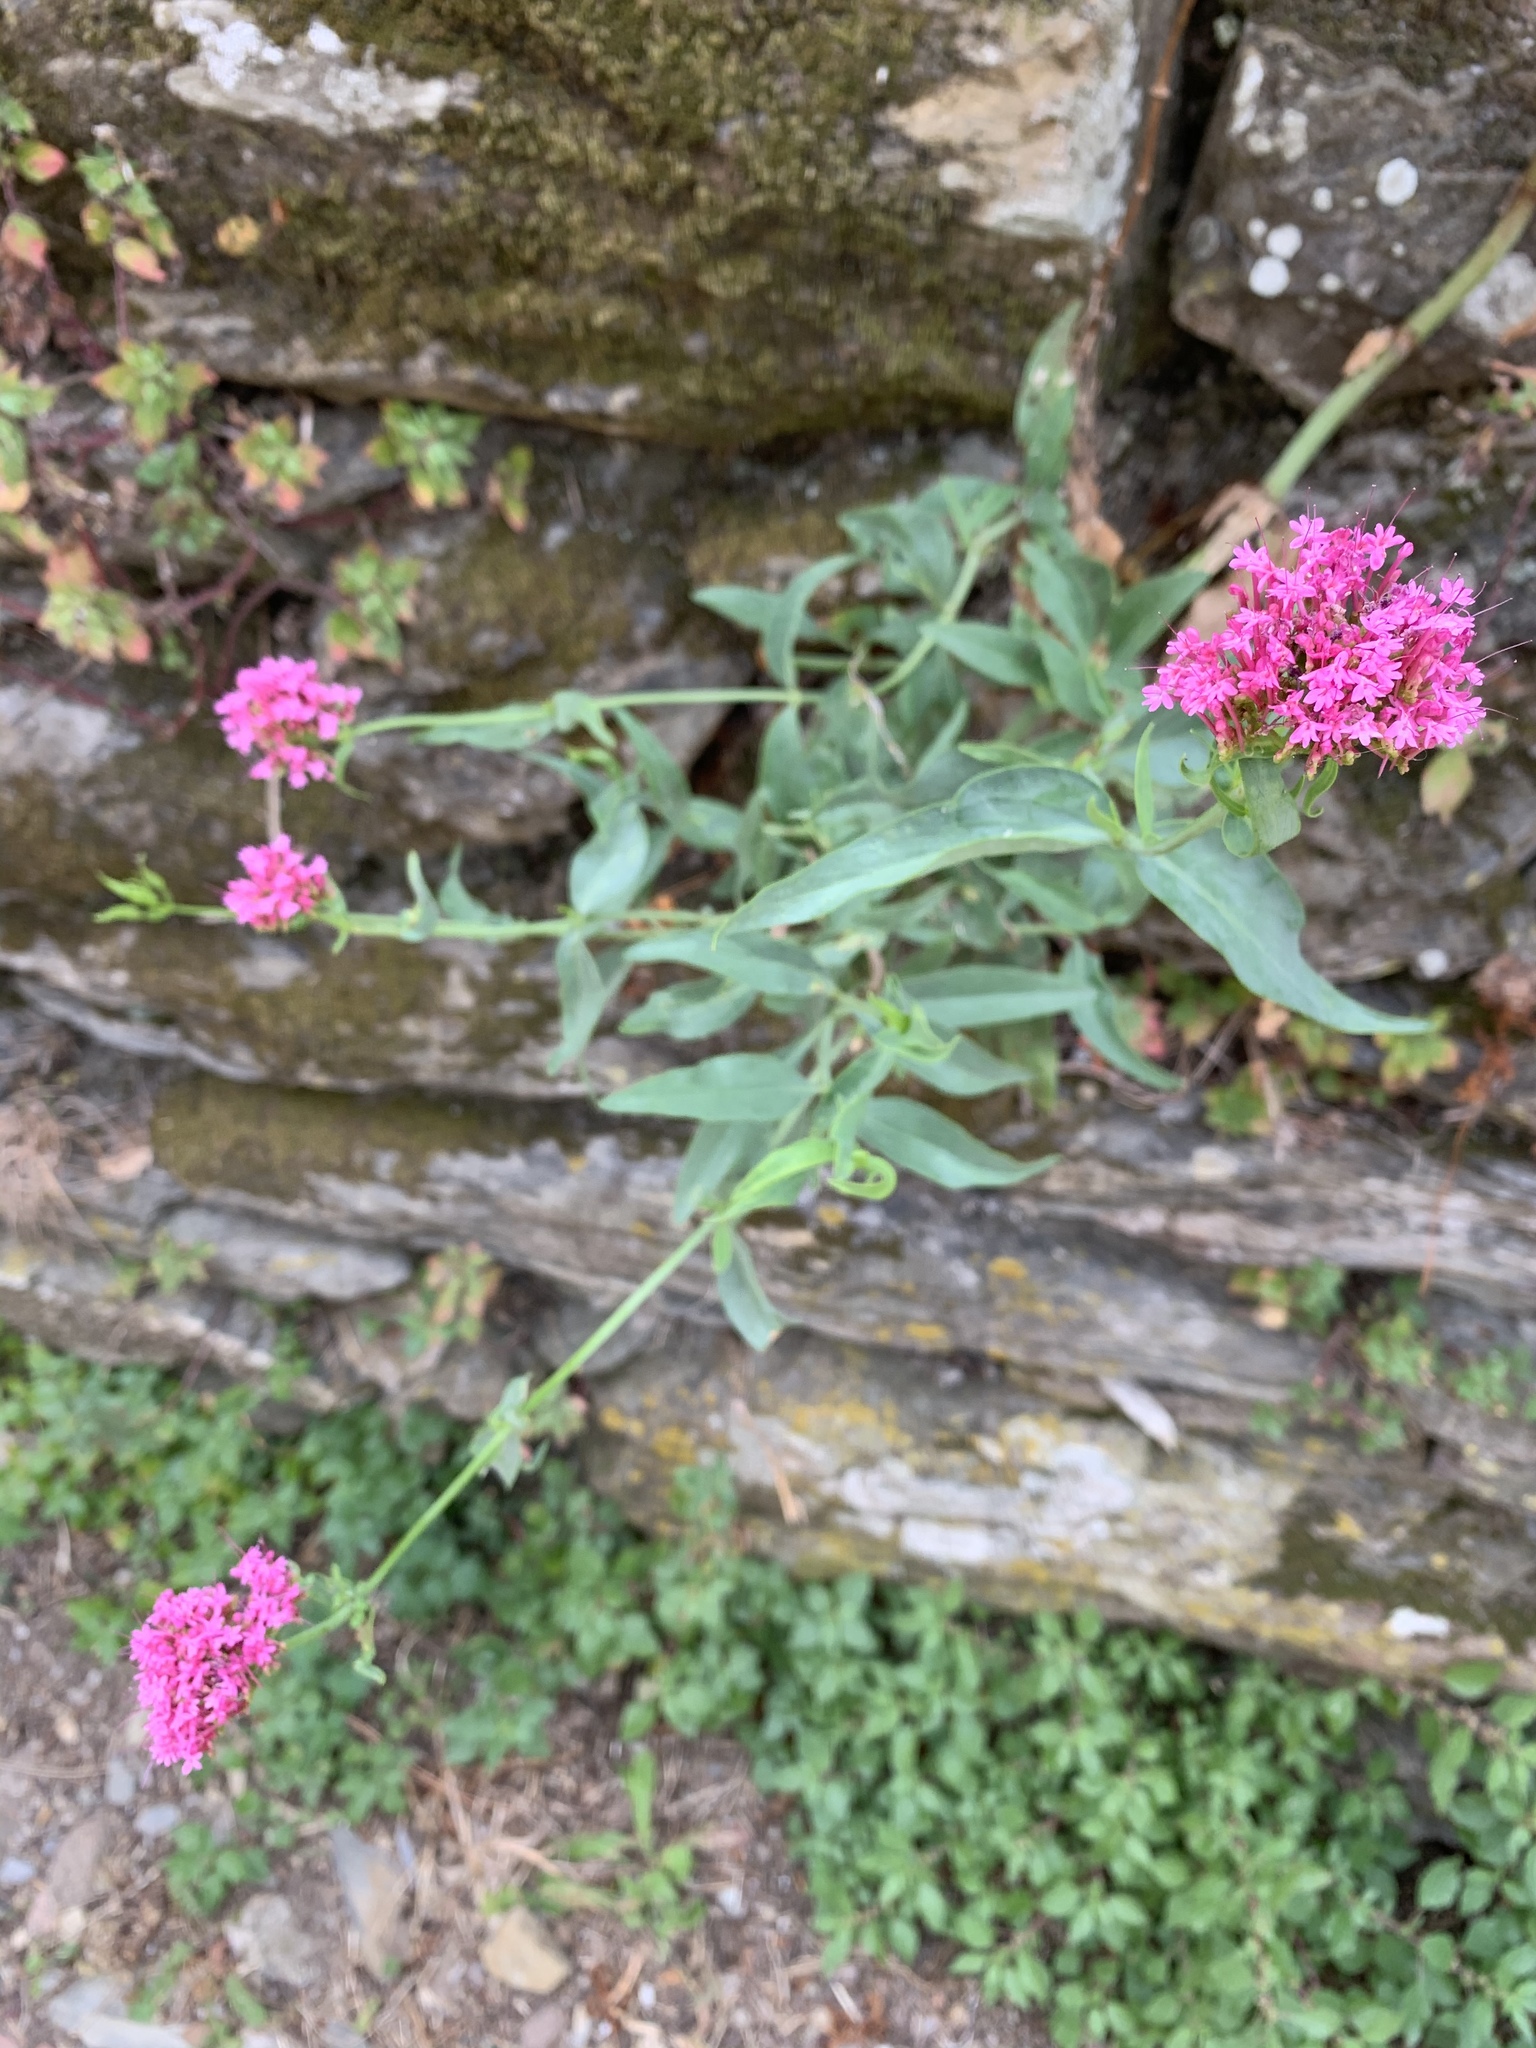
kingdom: Plantae
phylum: Tracheophyta
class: Magnoliopsida
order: Dipsacales
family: Caprifoliaceae
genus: Centranthus
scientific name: Centranthus ruber
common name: Red valerian
